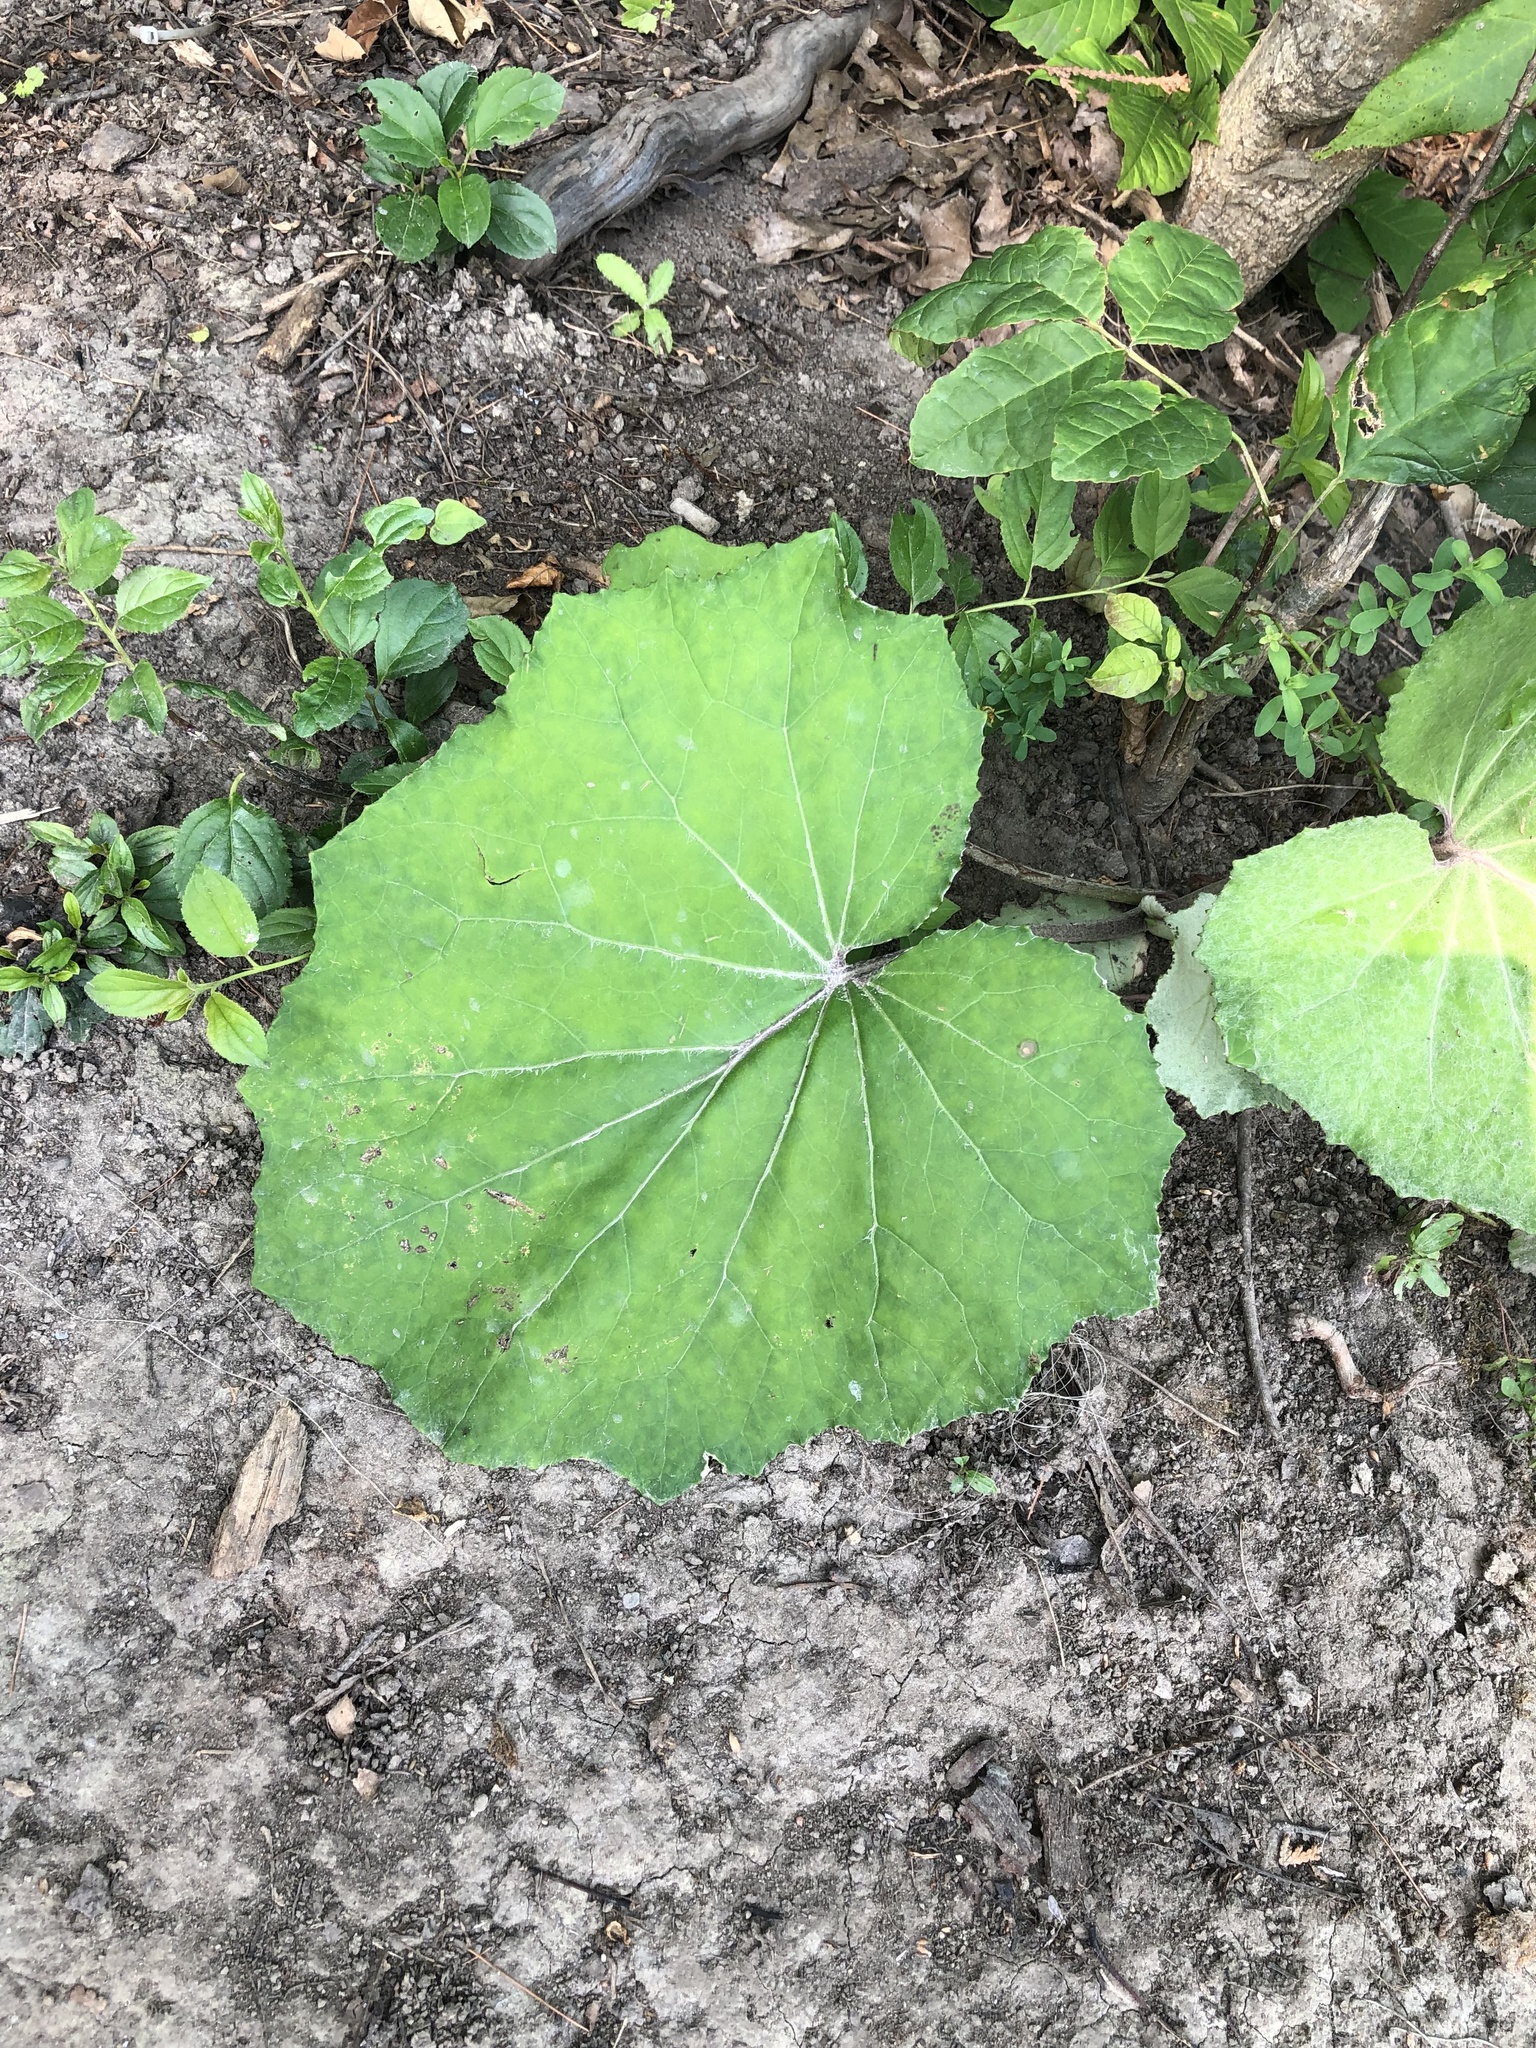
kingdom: Plantae
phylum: Tracheophyta
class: Magnoliopsida
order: Asterales
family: Asteraceae
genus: Tussilago
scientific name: Tussilago farfara
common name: Coltsfoot
